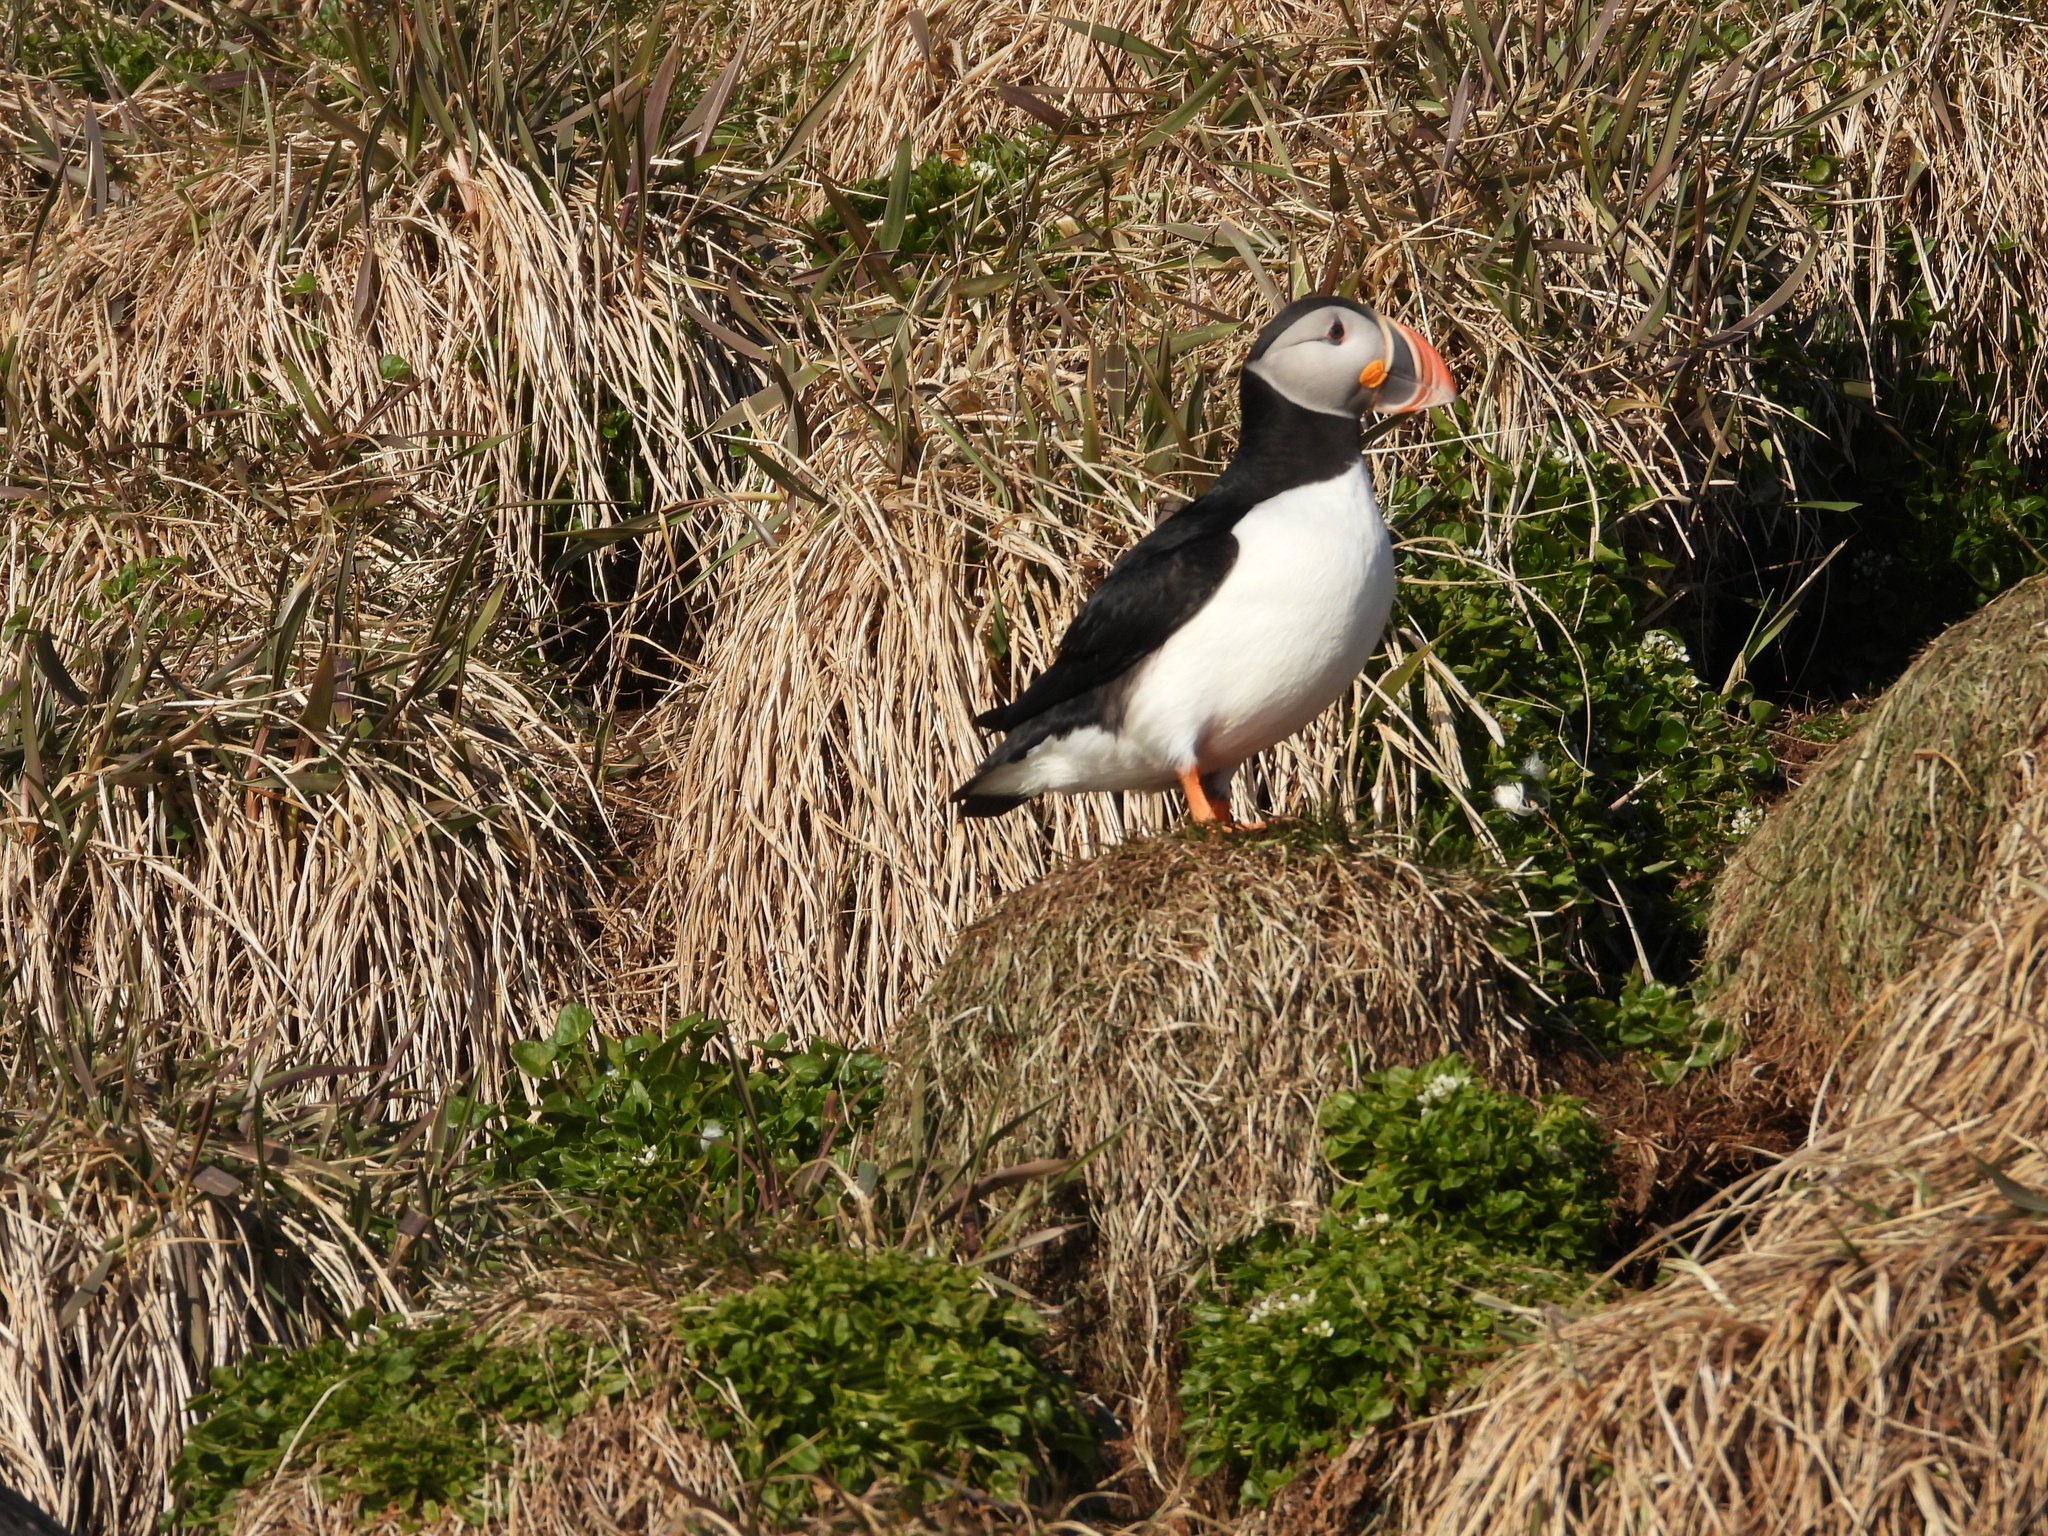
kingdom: Animalia
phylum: Chordata
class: Aves
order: Charadriiformes
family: Alcidae
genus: Fratercula
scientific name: Fratercula arctica
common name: Atlantic puffin
